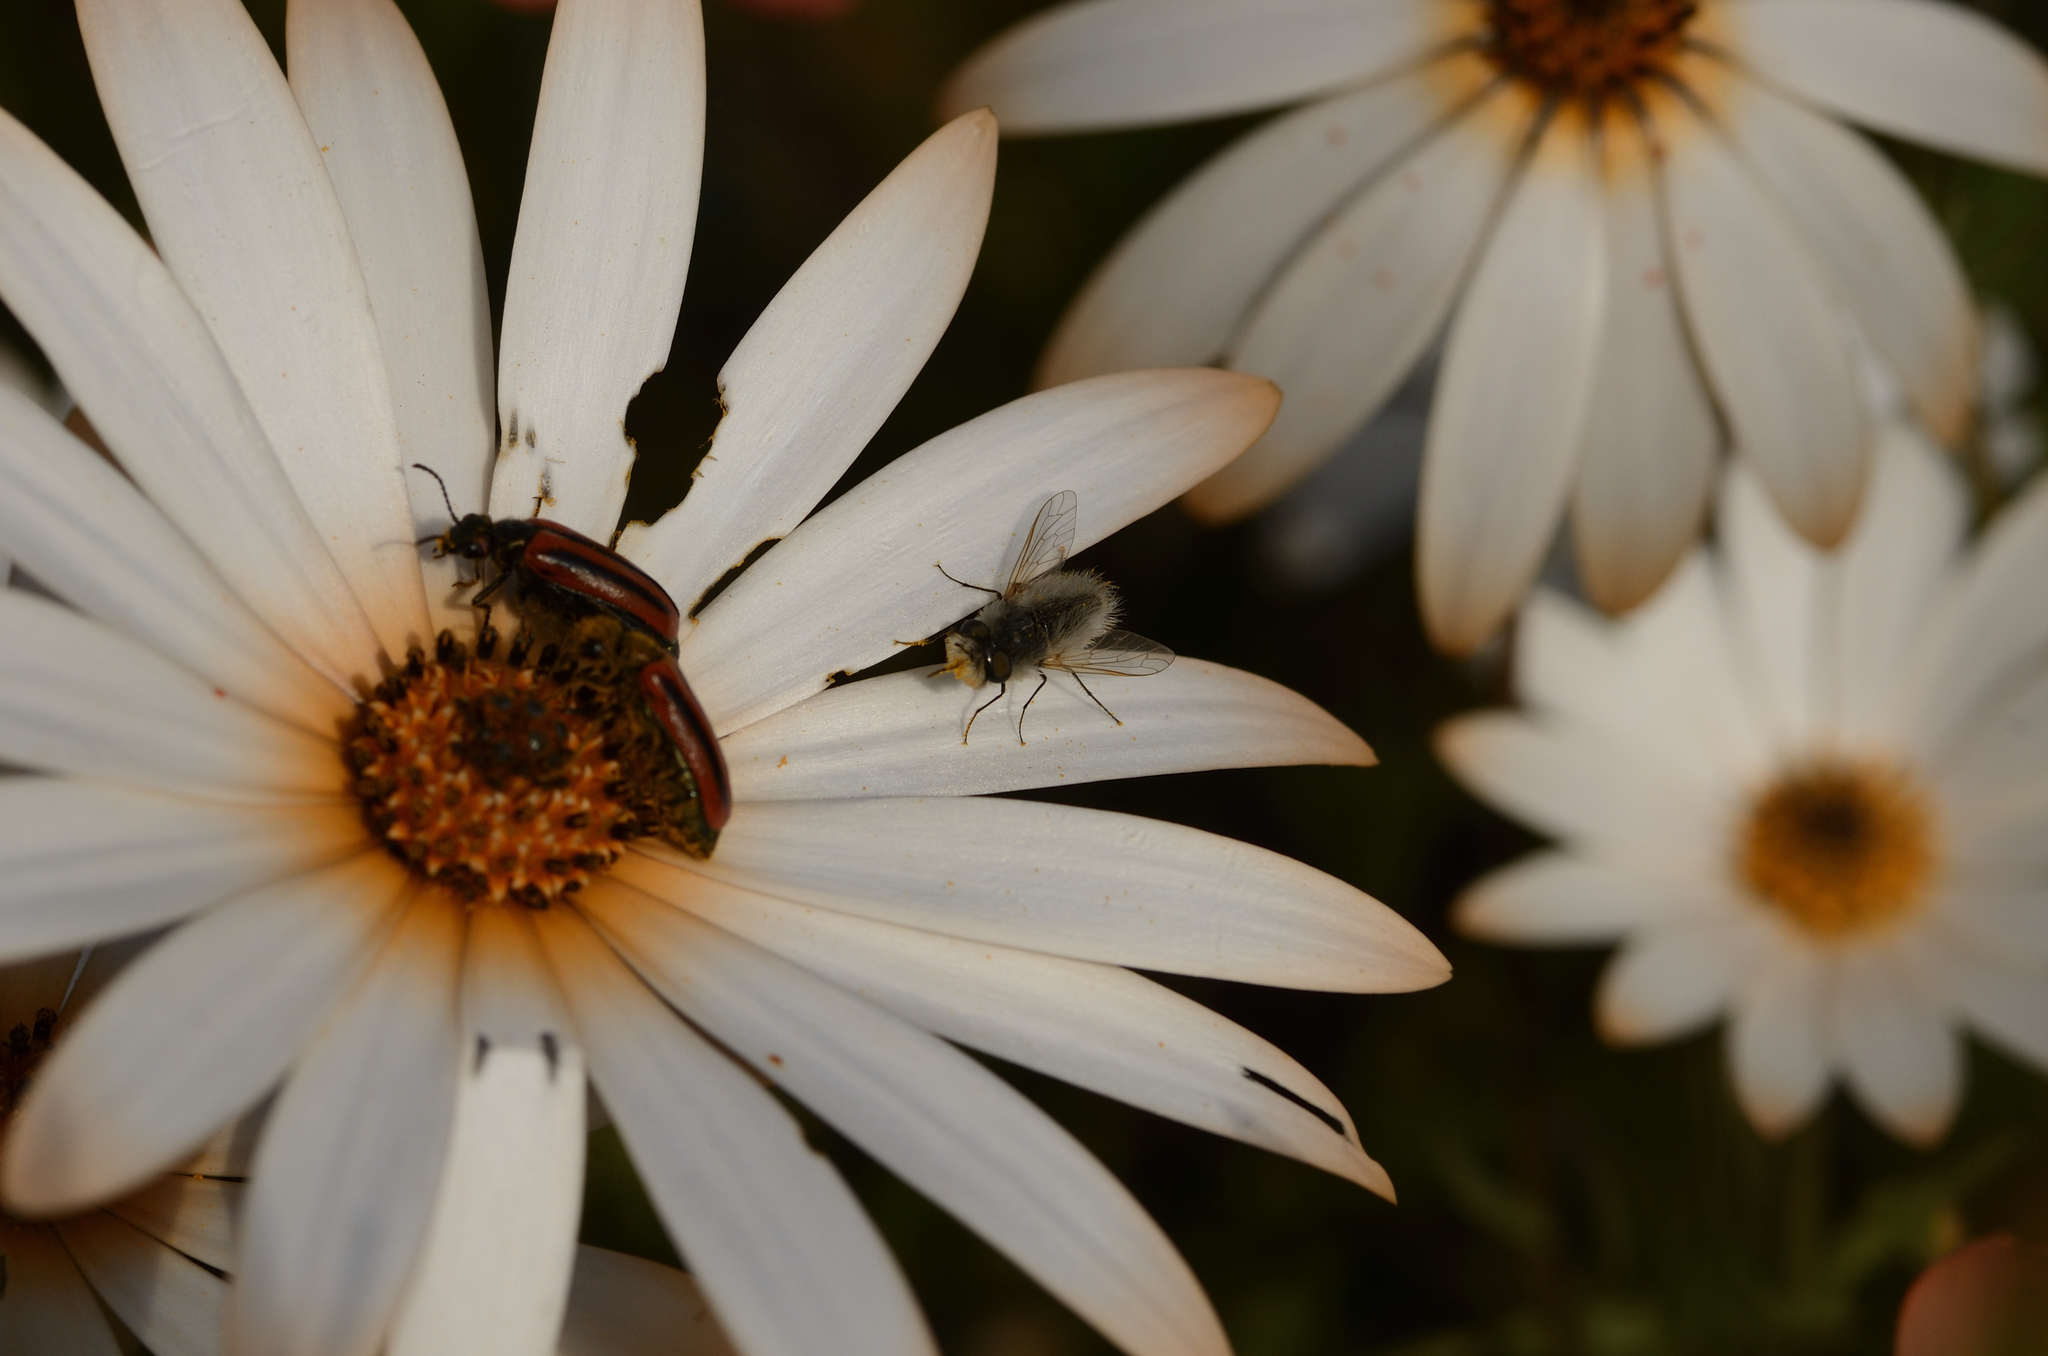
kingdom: Animalia
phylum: Arthropoda
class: Insecta
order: Diptera
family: Bombyliidae
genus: Corsomyza
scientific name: Corsomyza tricellulata
